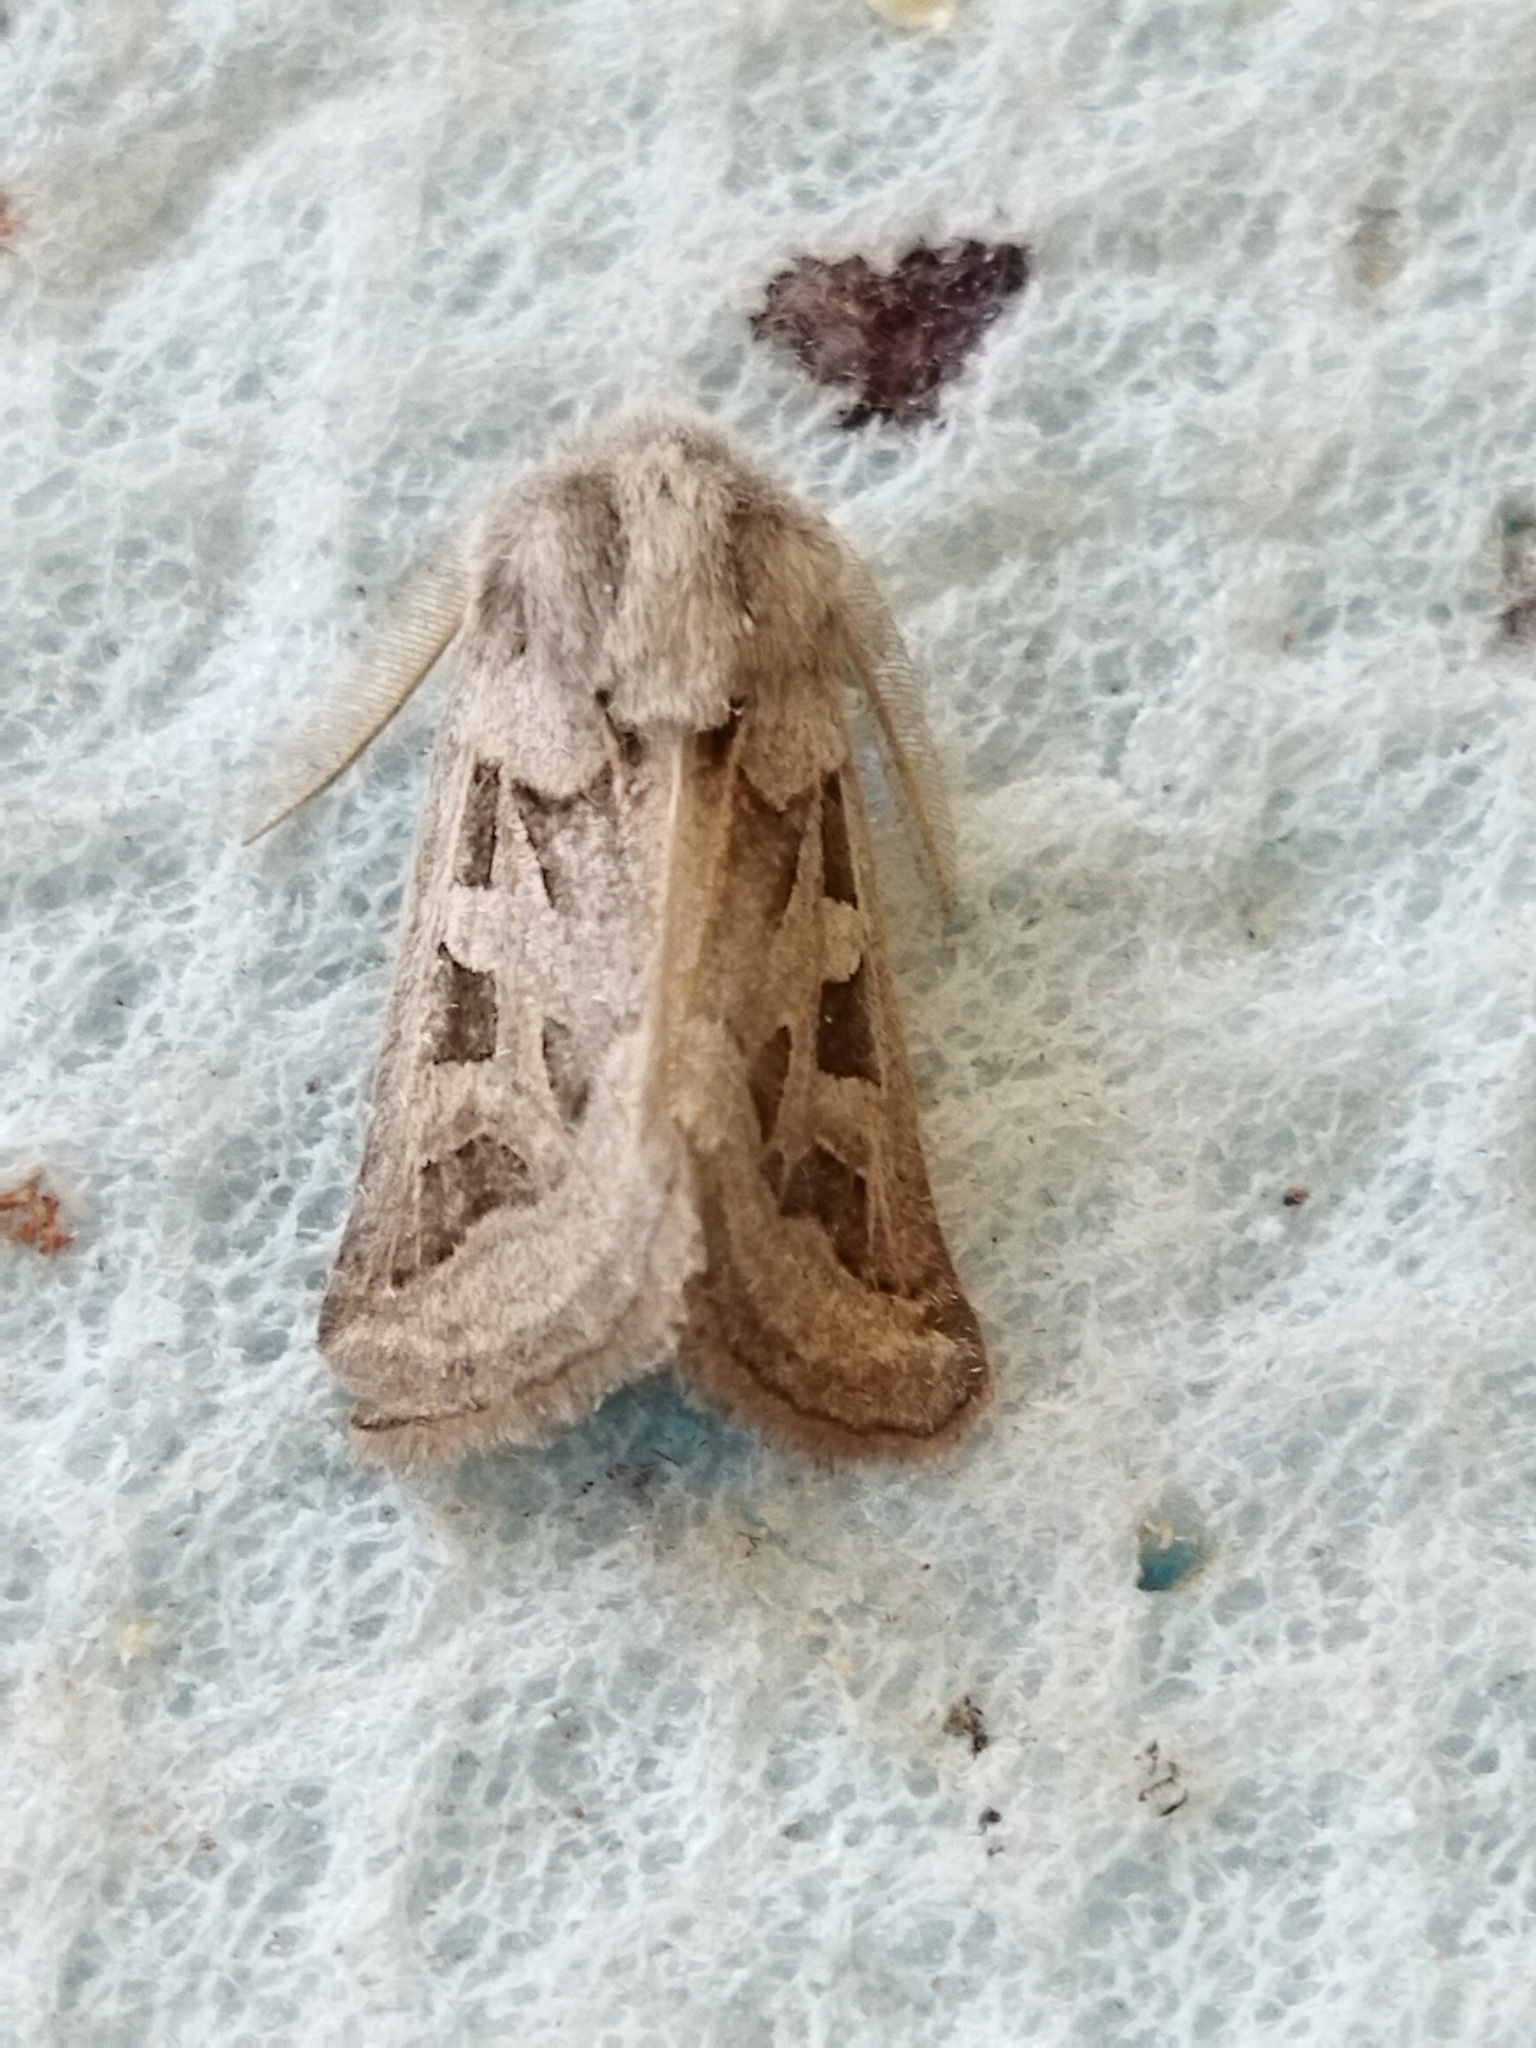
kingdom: Animalia
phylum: Arthropoda
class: Insecta
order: Lepidoptera
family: Noctuidae
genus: Episema
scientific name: Episema glaucina
